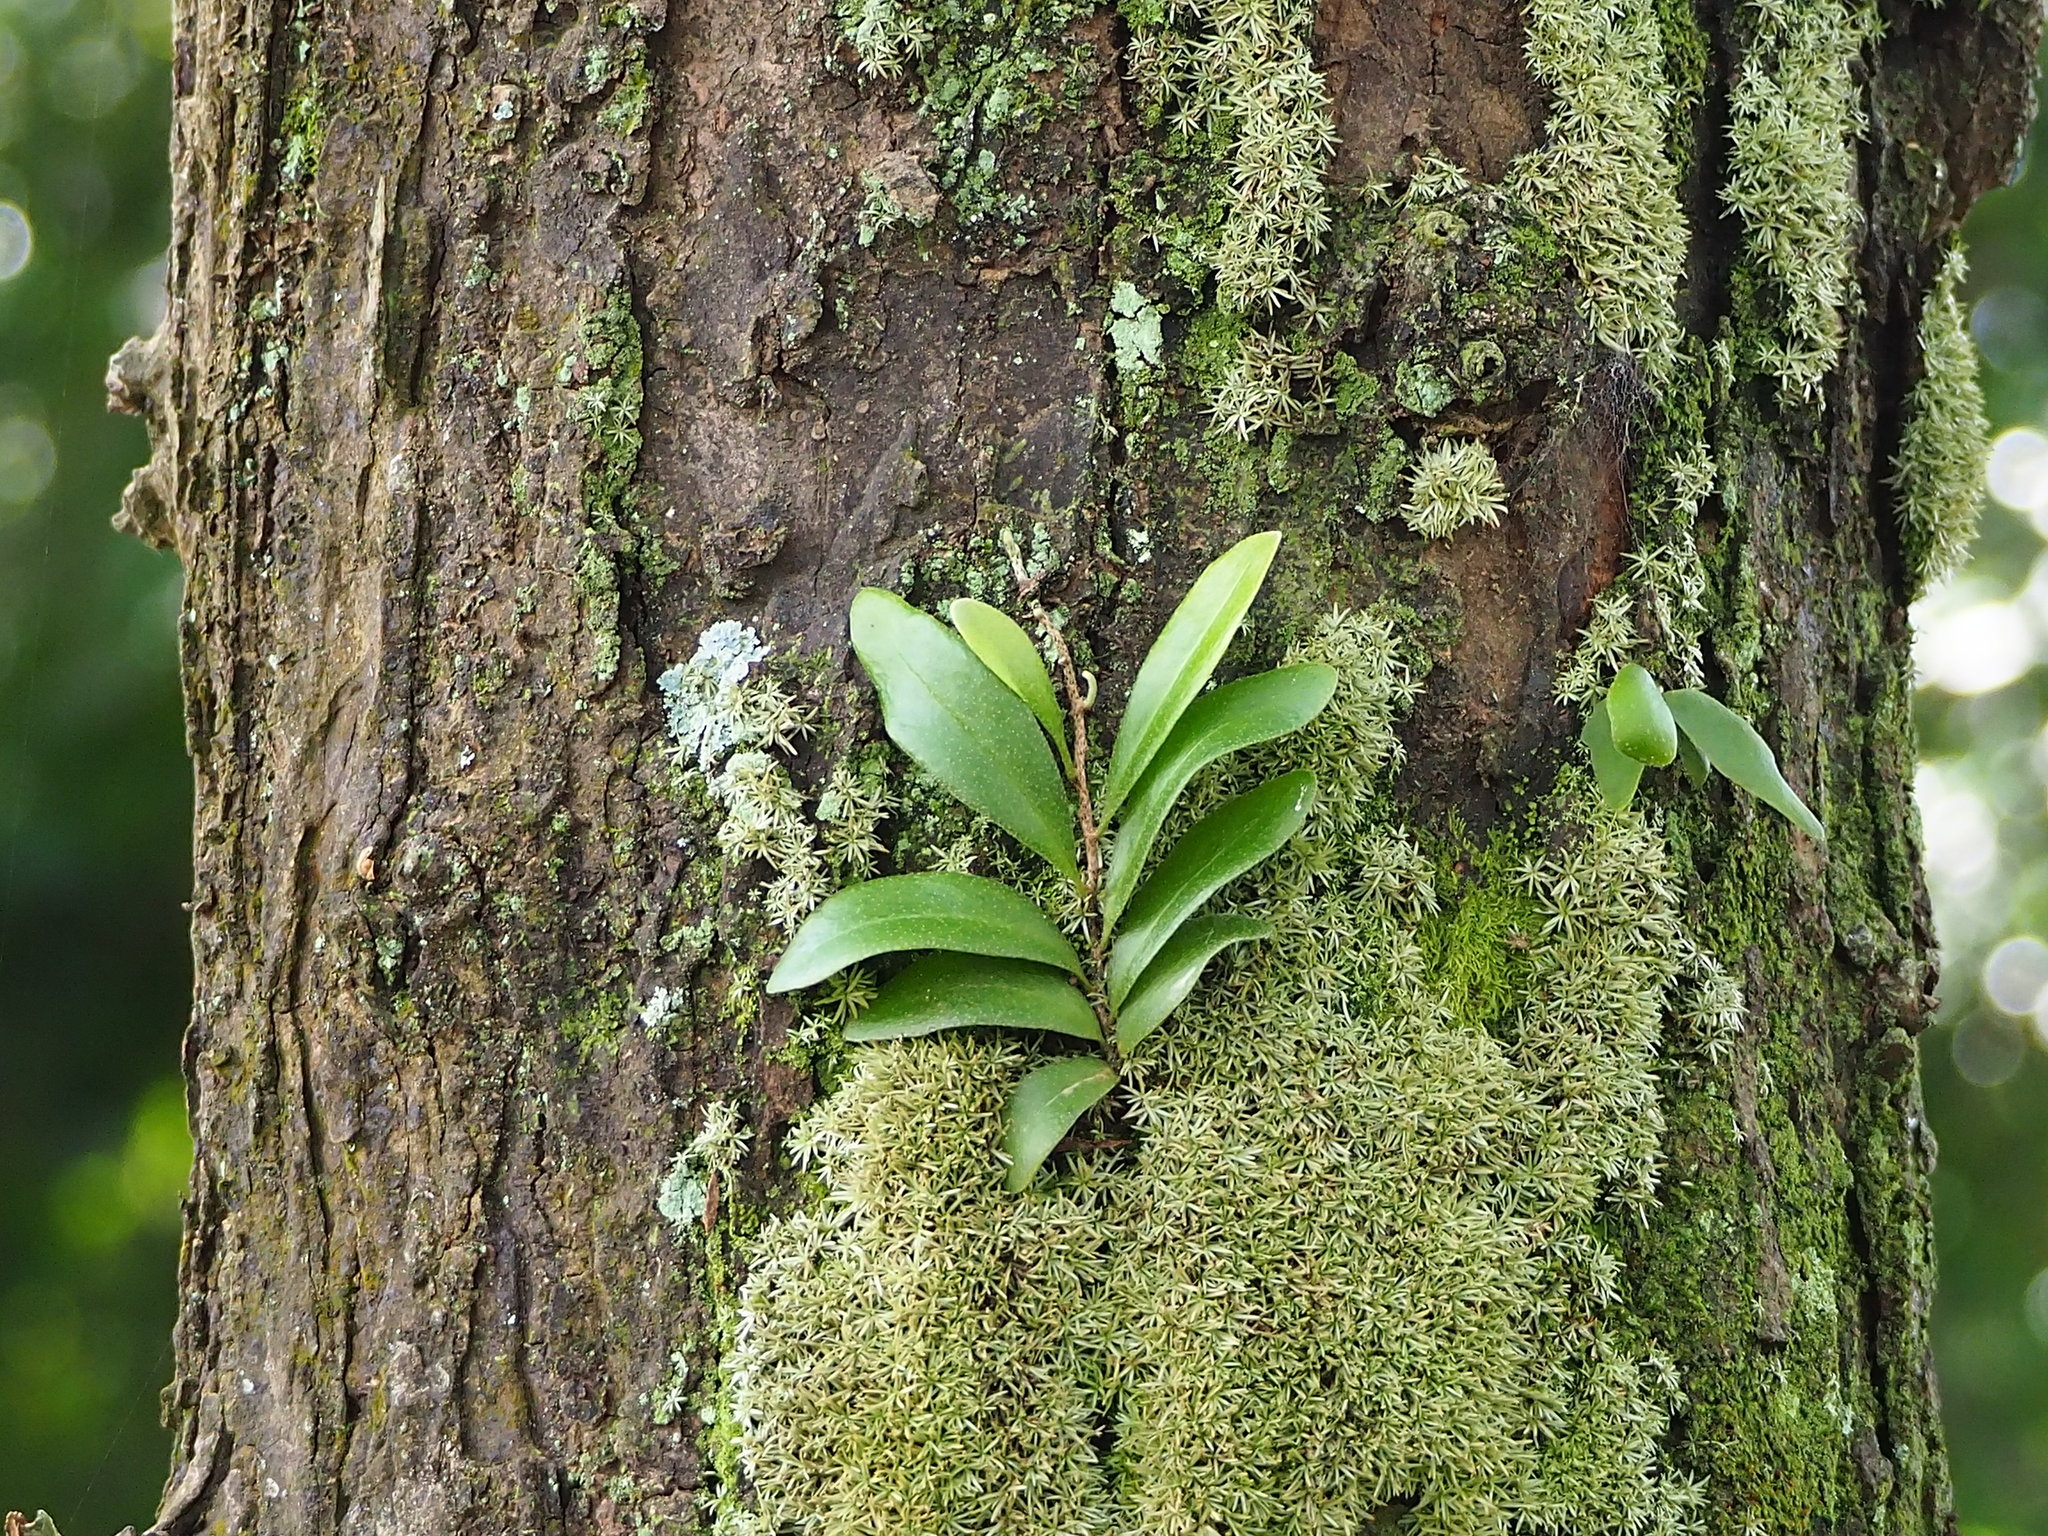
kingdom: Plantae
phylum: Tracheophyta
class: Polypodiopsida
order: Polypodiales
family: Polypodiaceae
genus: Pyrrosia
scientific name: Pyrrosia lanceolata
